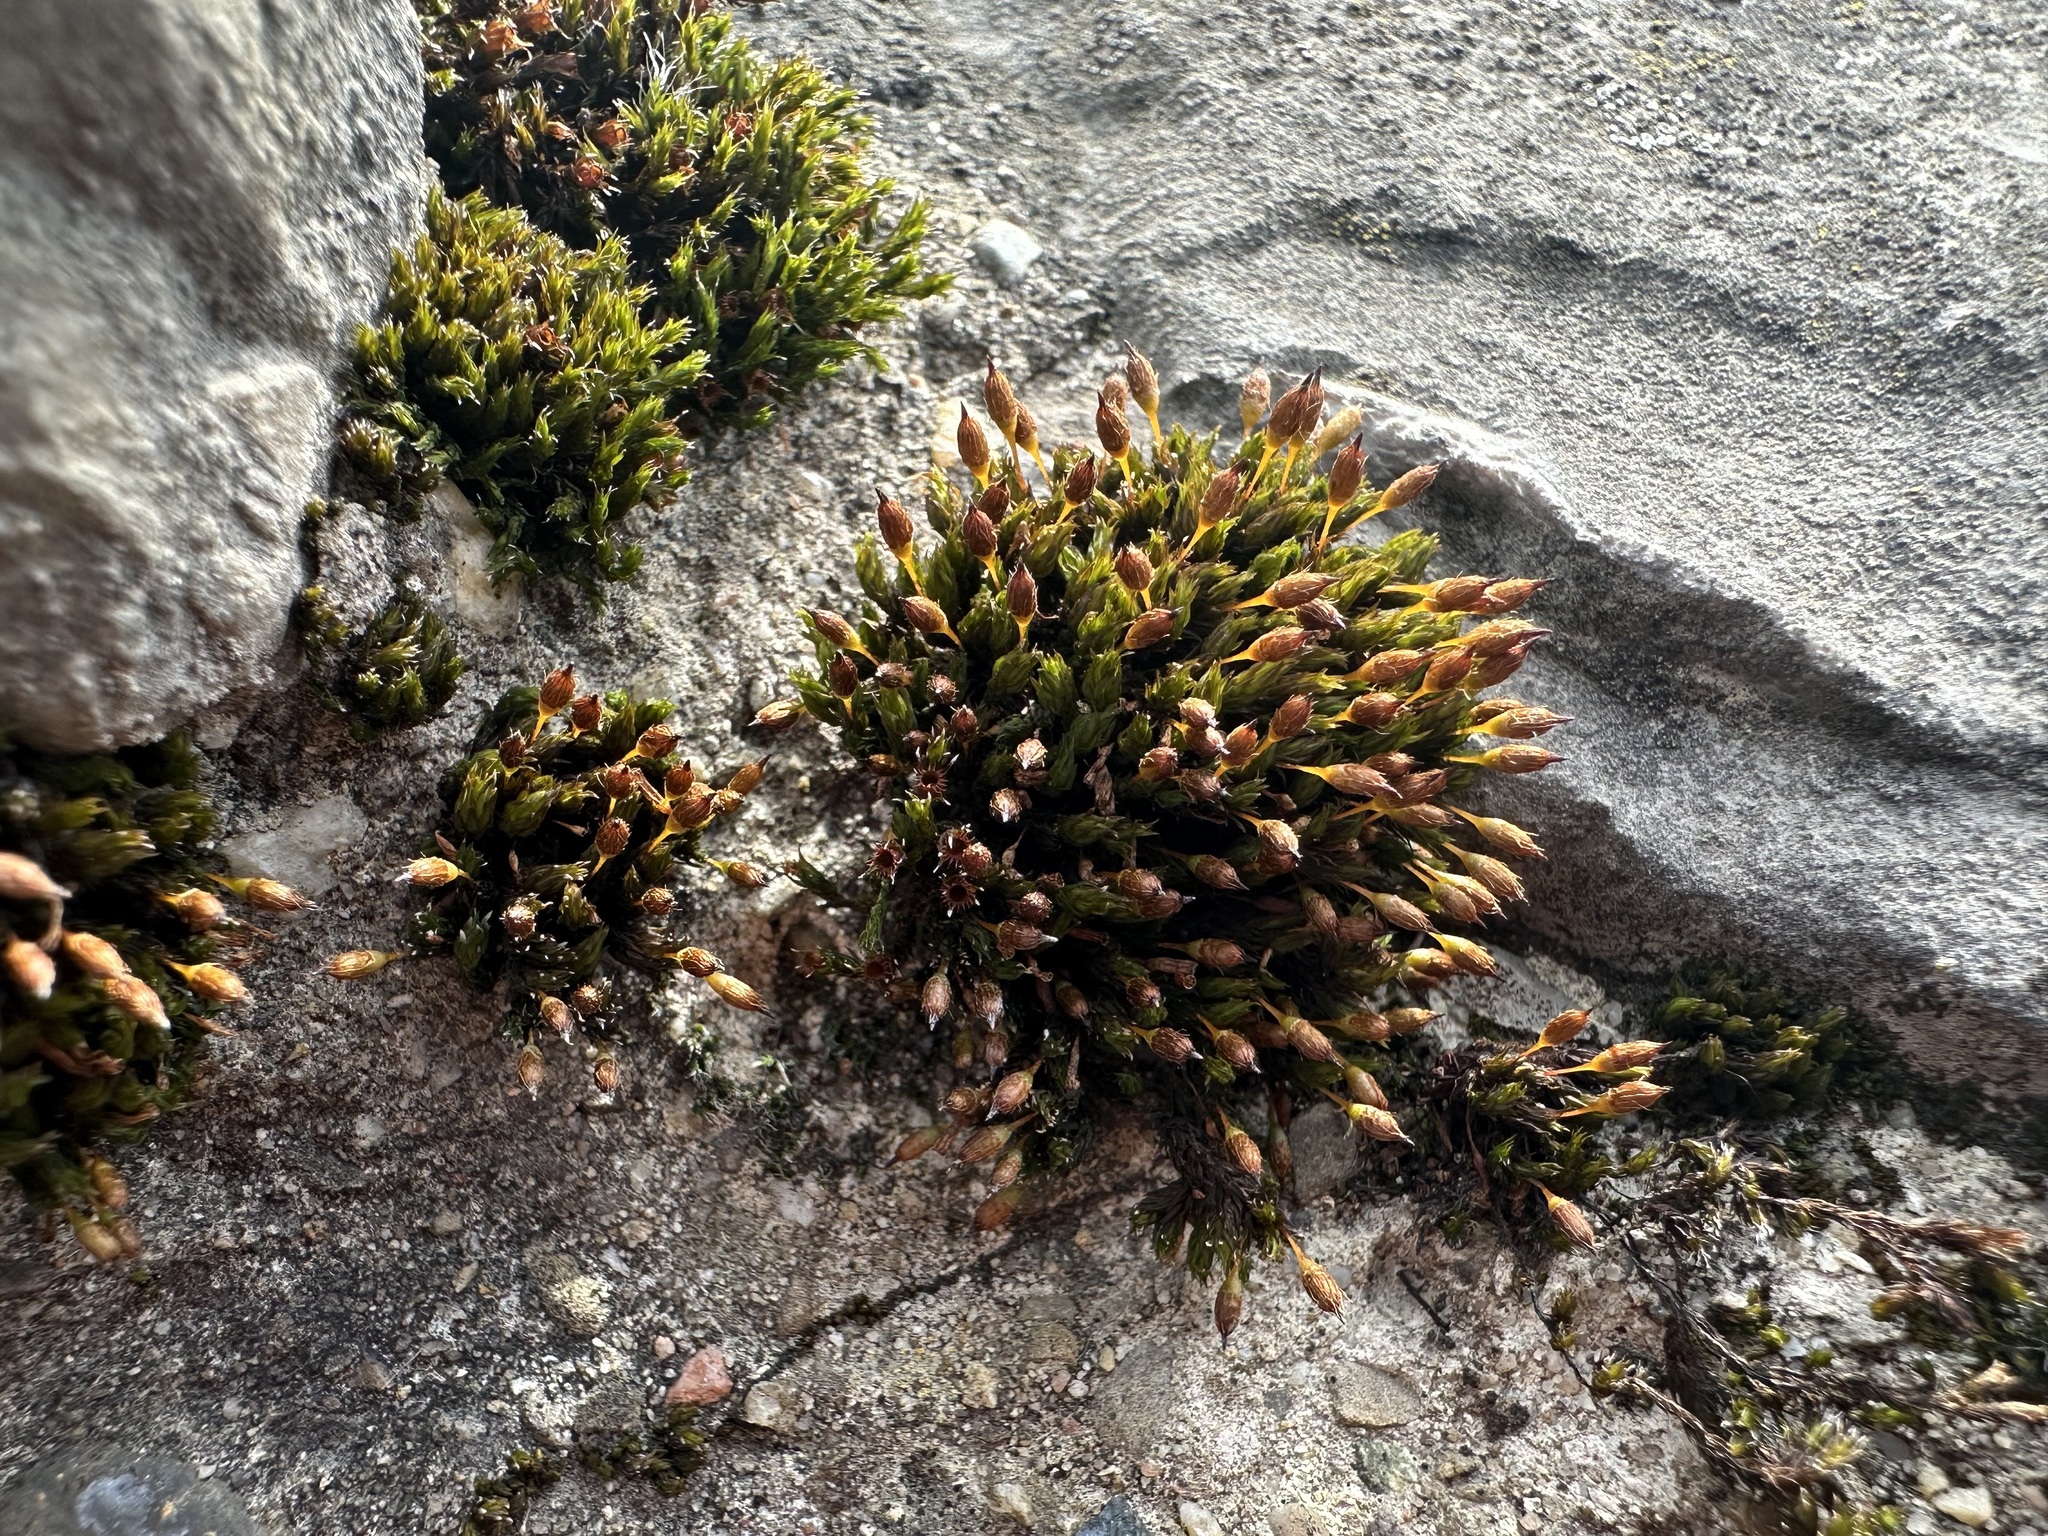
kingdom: Plantae
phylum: Bryophyta
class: Bryopsida
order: Orthotrichales
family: Orthotrichaceae
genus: Orthotrichum
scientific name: Orthotrichum anomalum
